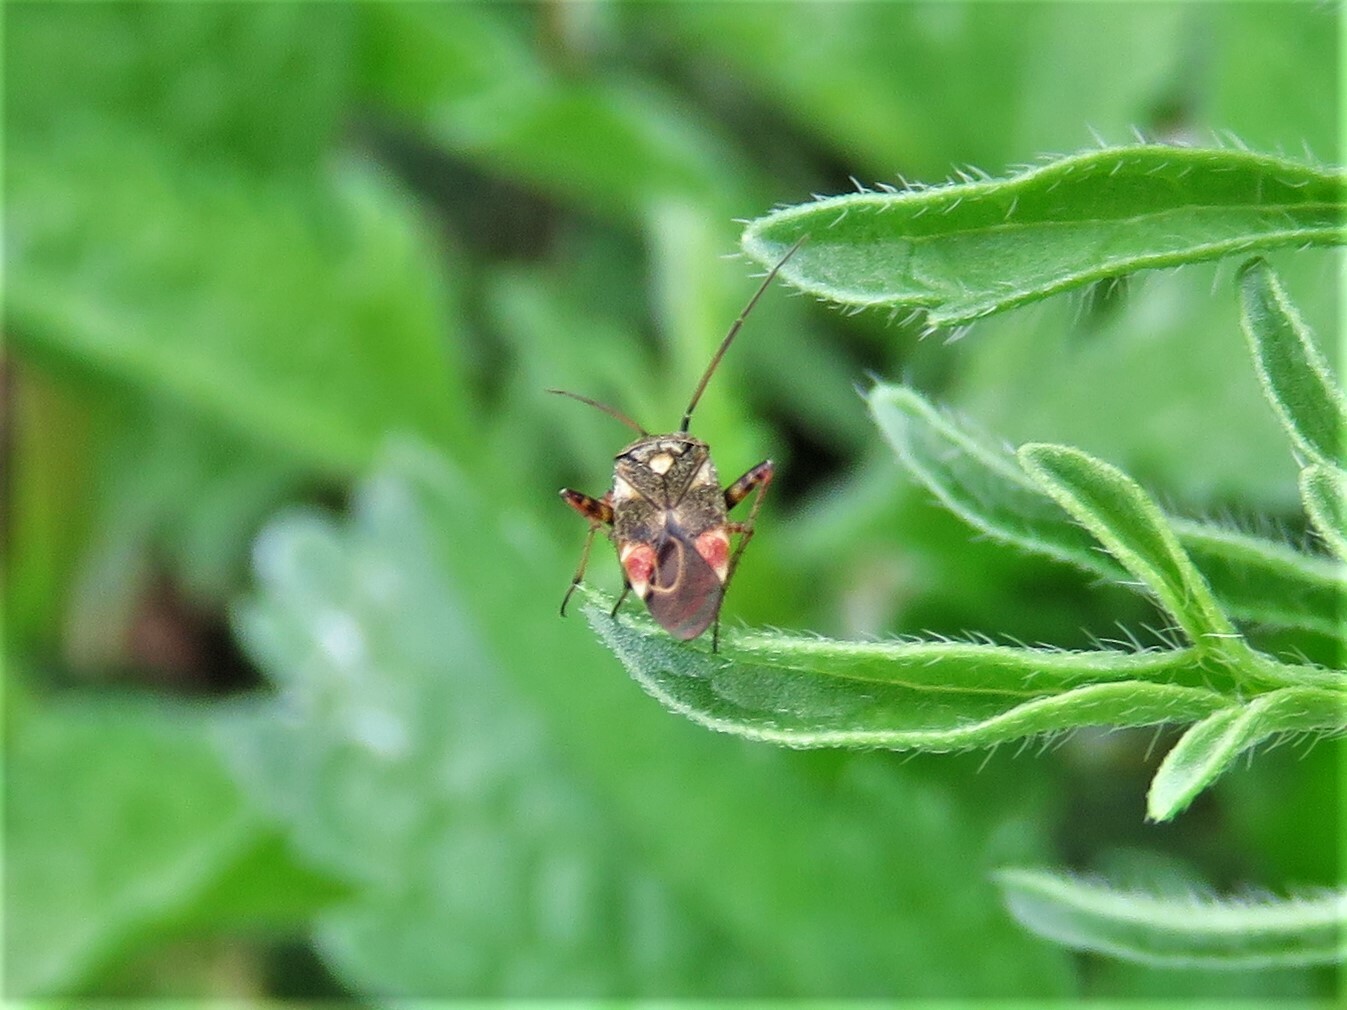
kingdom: Animalia
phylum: Arthropoda
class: Insecta
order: Hemiptera
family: Miridae
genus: Polymerus
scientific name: Polymerus basalis
